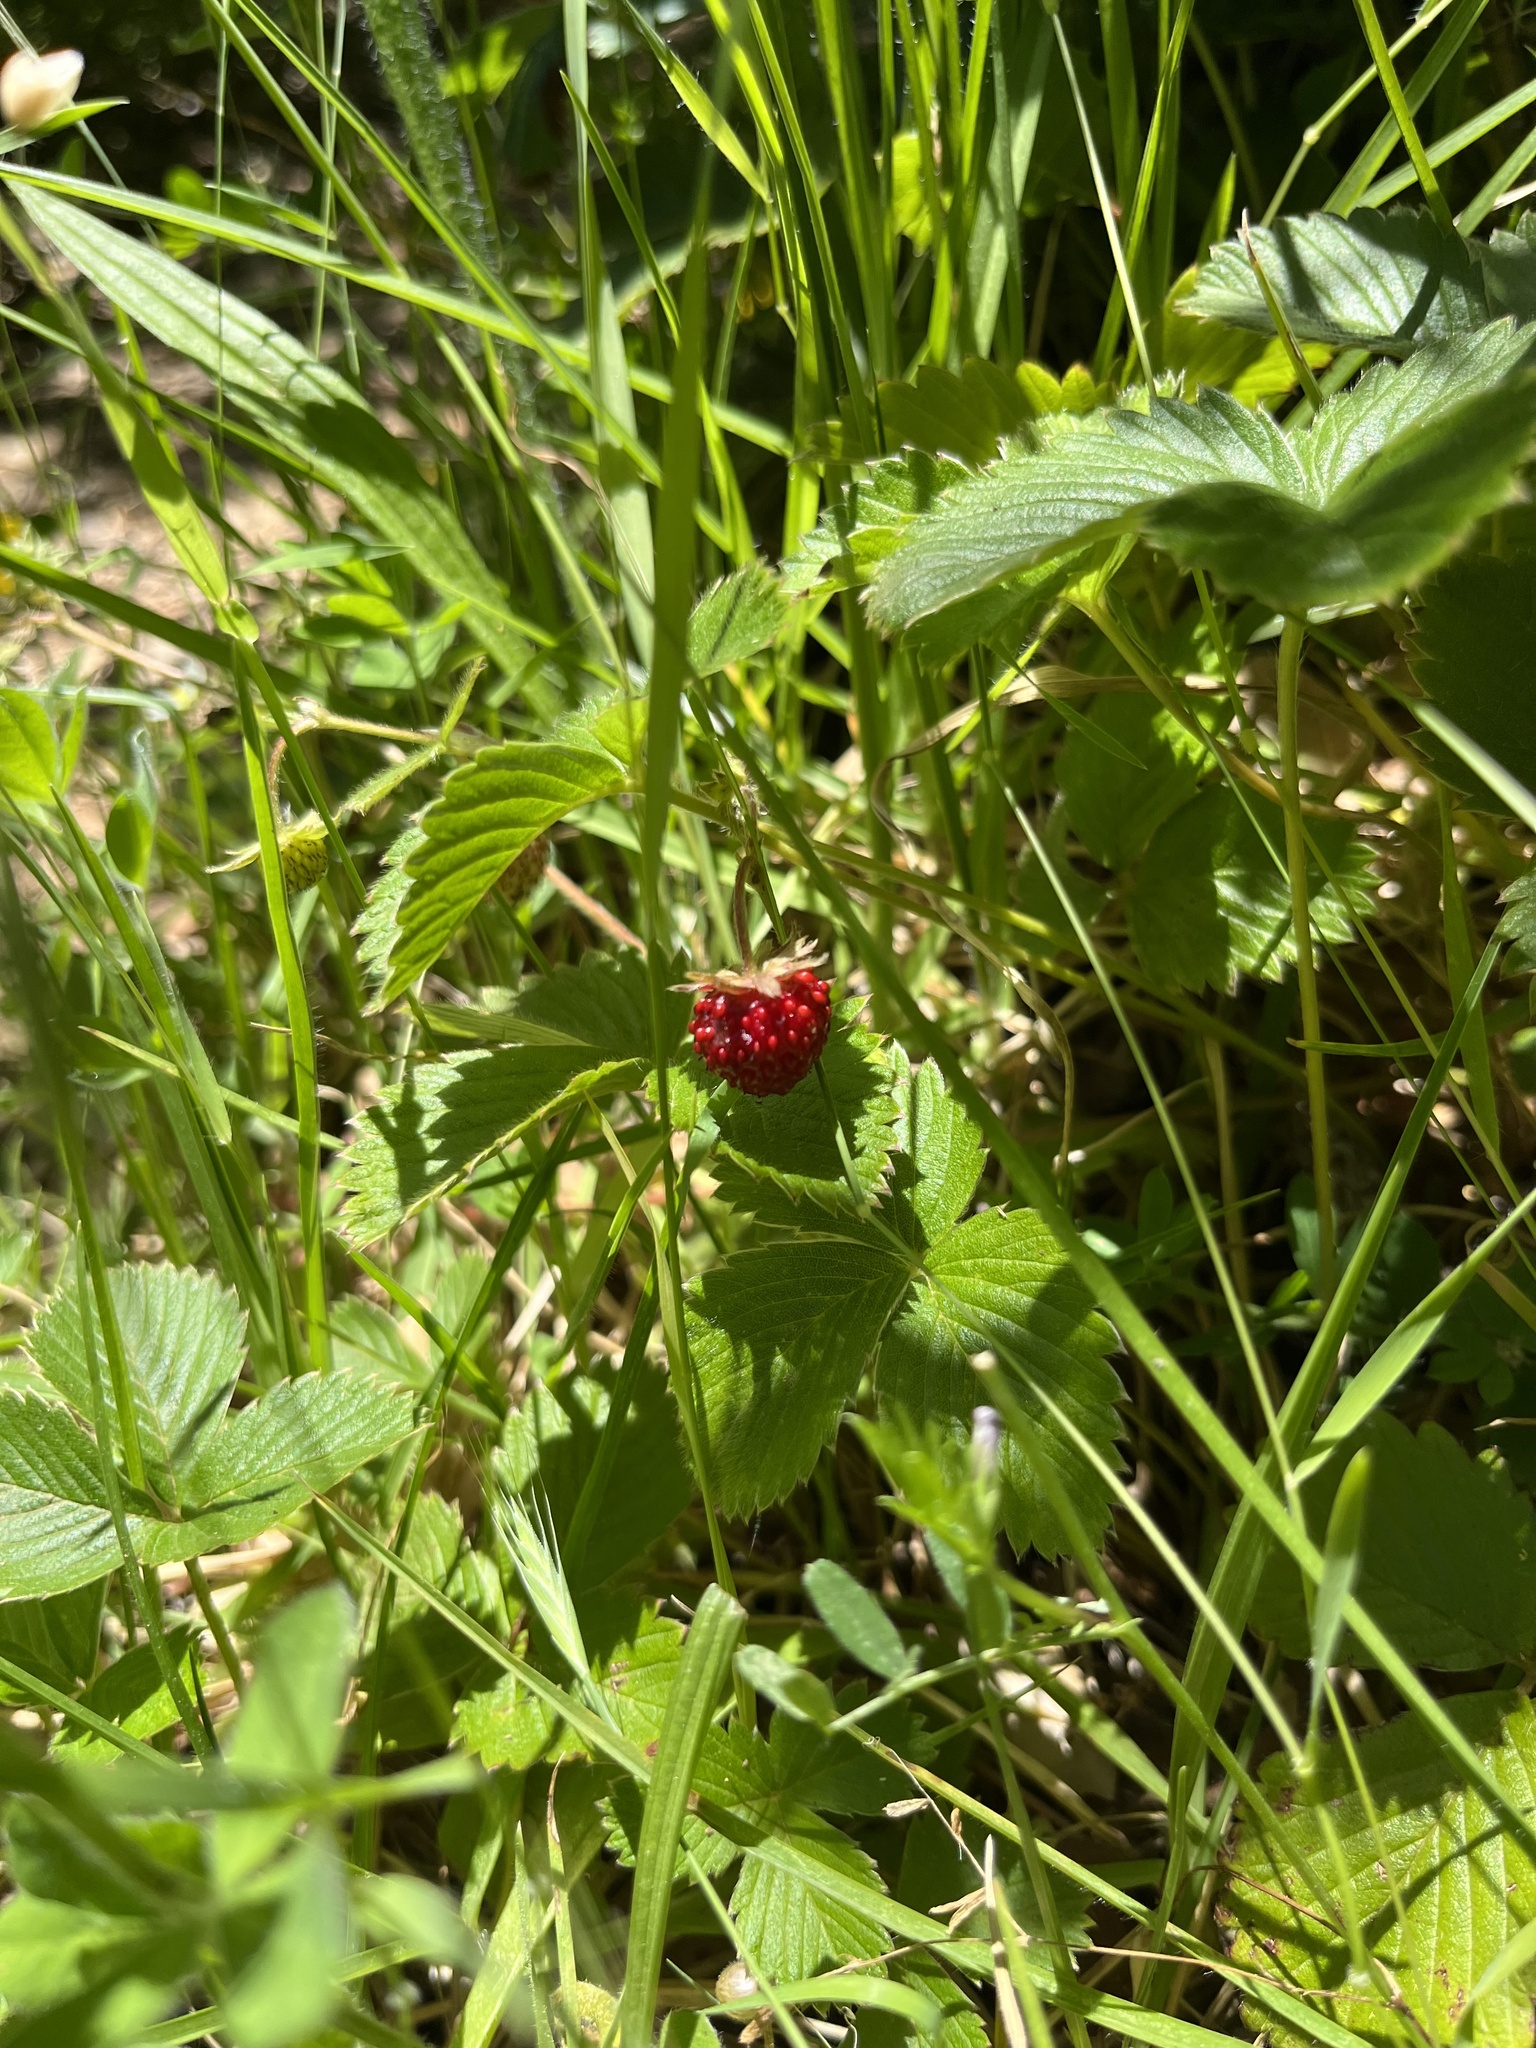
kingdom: Plantae
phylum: Tracheophyta
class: Magnoliopsida
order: Rosales
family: Rosaceae
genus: Fragaria
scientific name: Fragaria vesca
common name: Wild strawberry
